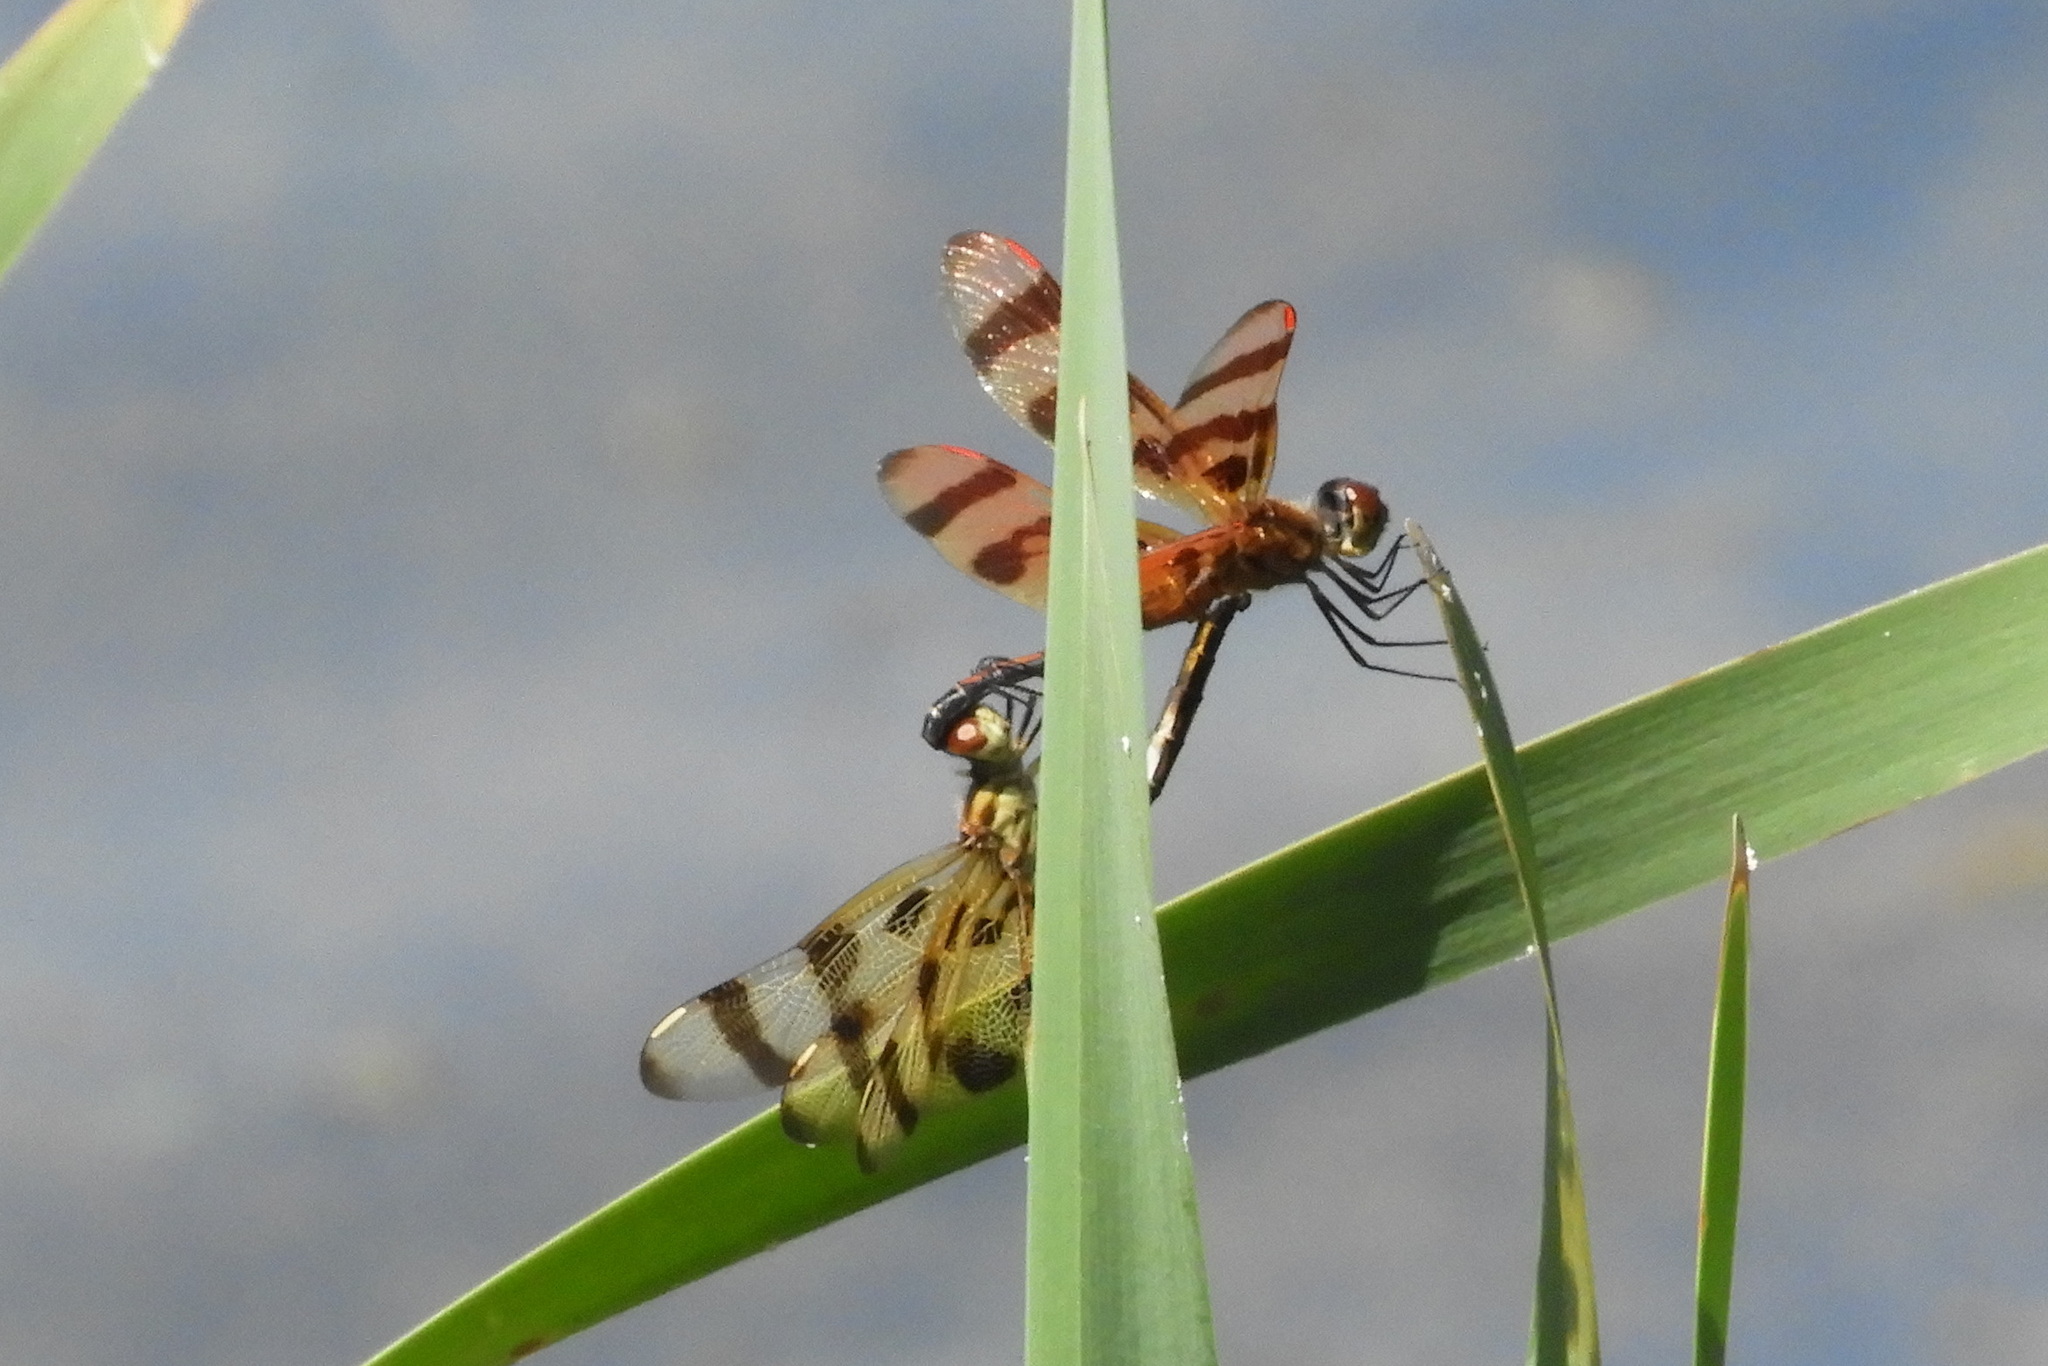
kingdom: Animalia
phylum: Arthropoda
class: Insecta
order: Odonata
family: Libellulidae
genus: Celithemis
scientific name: Celithemis eponina
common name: Halloween pennant
